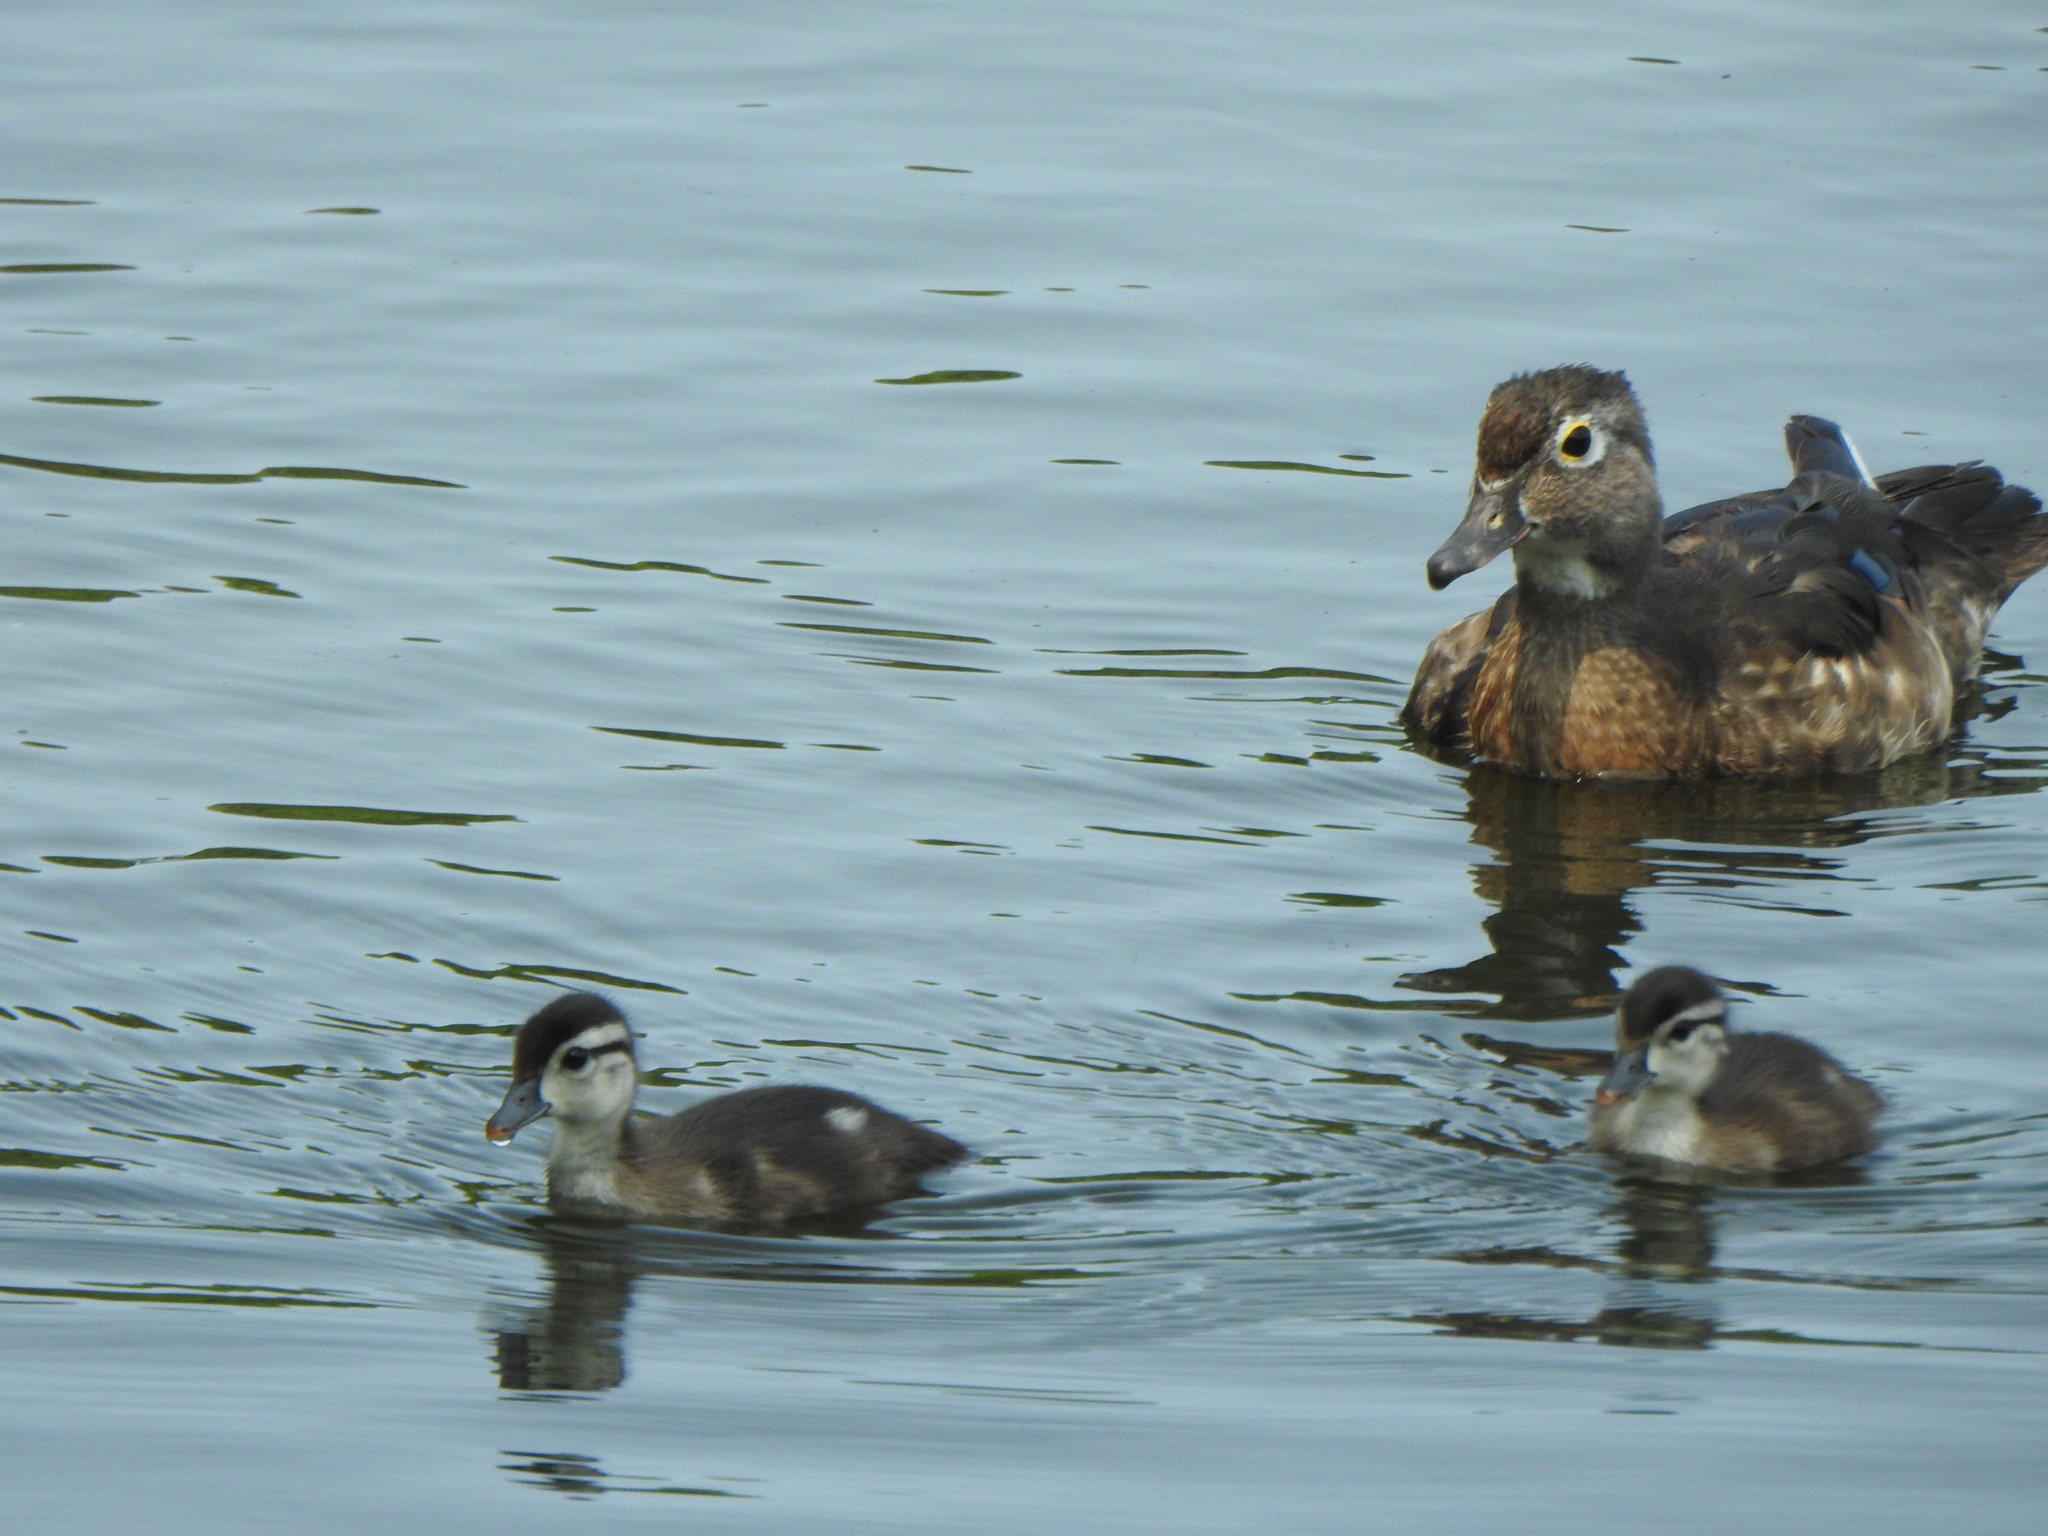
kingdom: Animalia
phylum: Chordata
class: Aves
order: Anseriformes
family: Anatidae
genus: Aix
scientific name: Aix sponsa
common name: Wood duck
